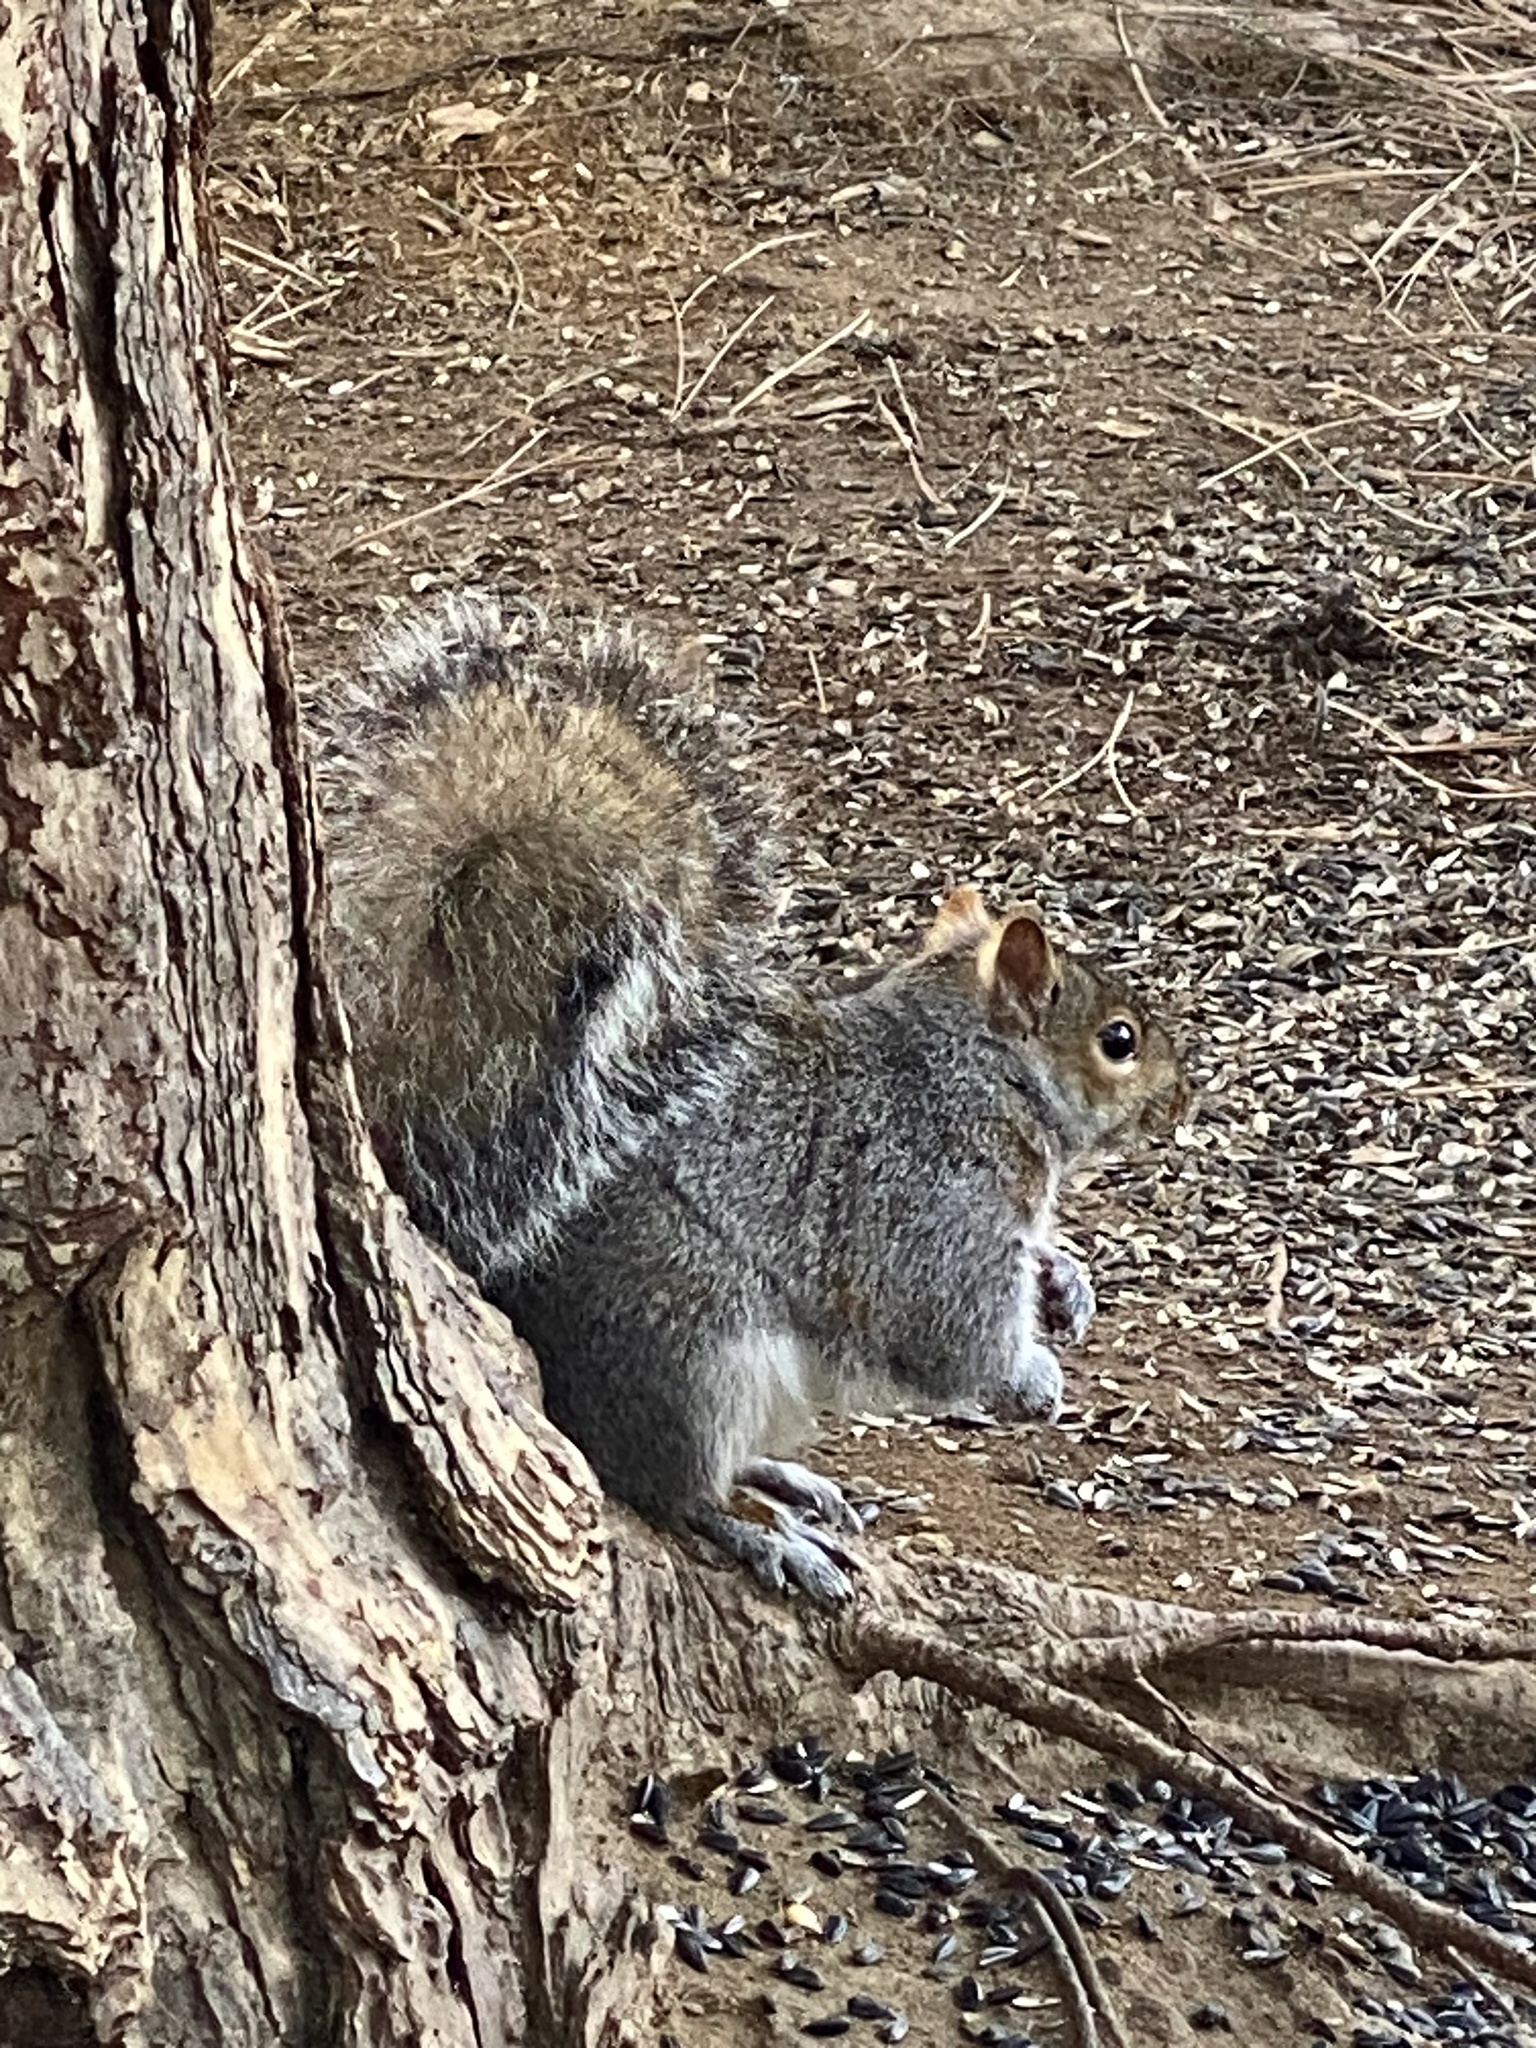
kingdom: Animalia
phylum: Chordata
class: Mammalia
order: Rodentia
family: Sciuridae
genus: Sciurus
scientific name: Sciurus carolinensis
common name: Eastern gray squirrel
